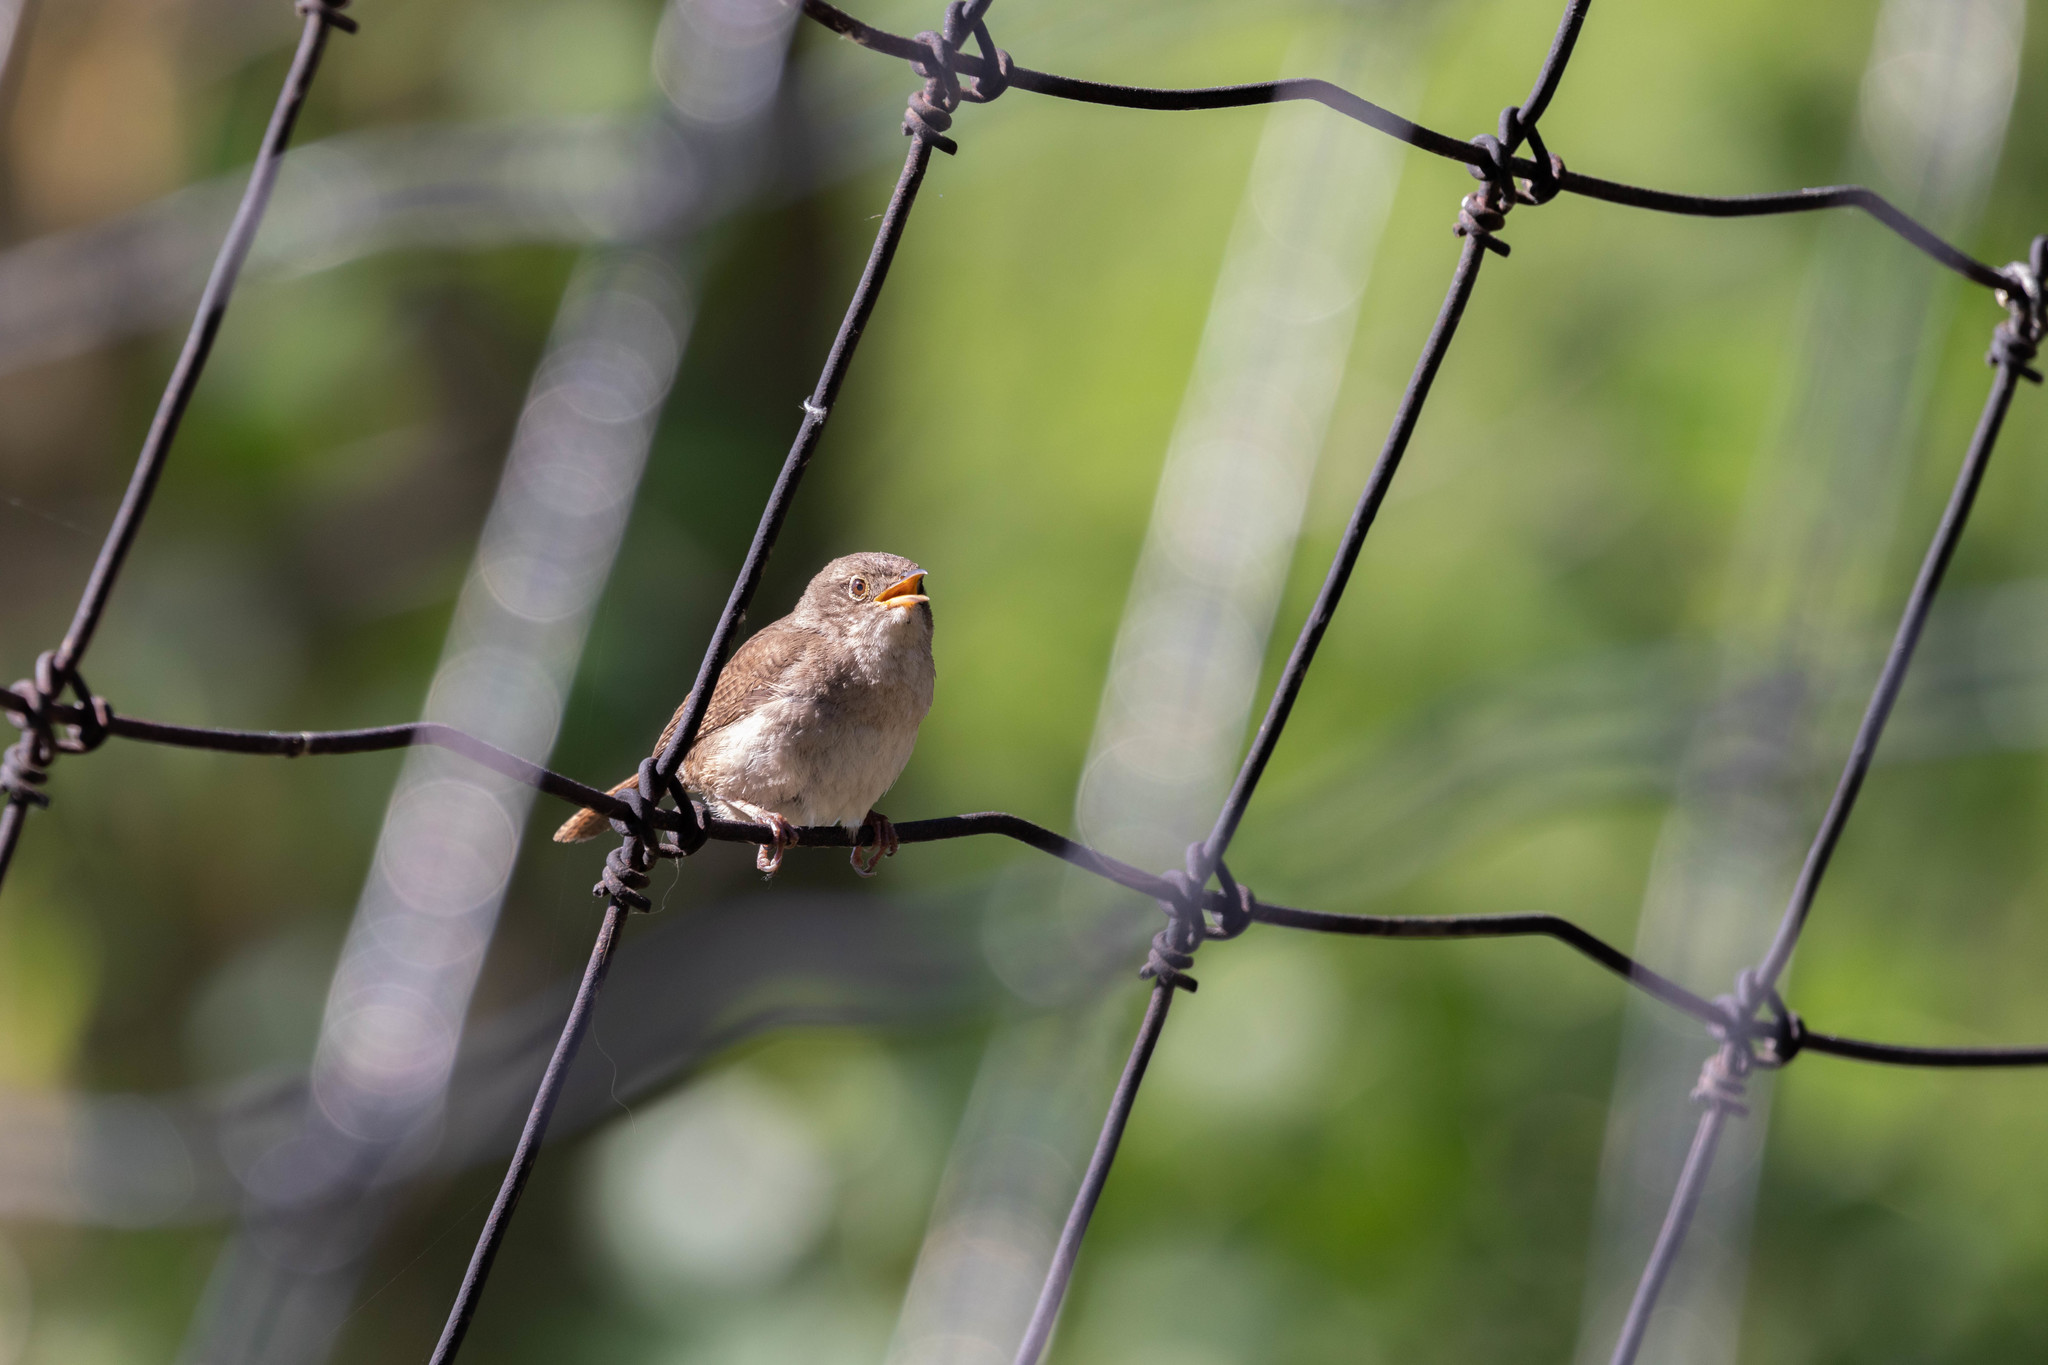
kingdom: Animalia
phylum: Chordata
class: Aves
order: Passeriformes
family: Troglodytidae
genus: Troglodytes
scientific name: Troglodytes aedon
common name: House wren
